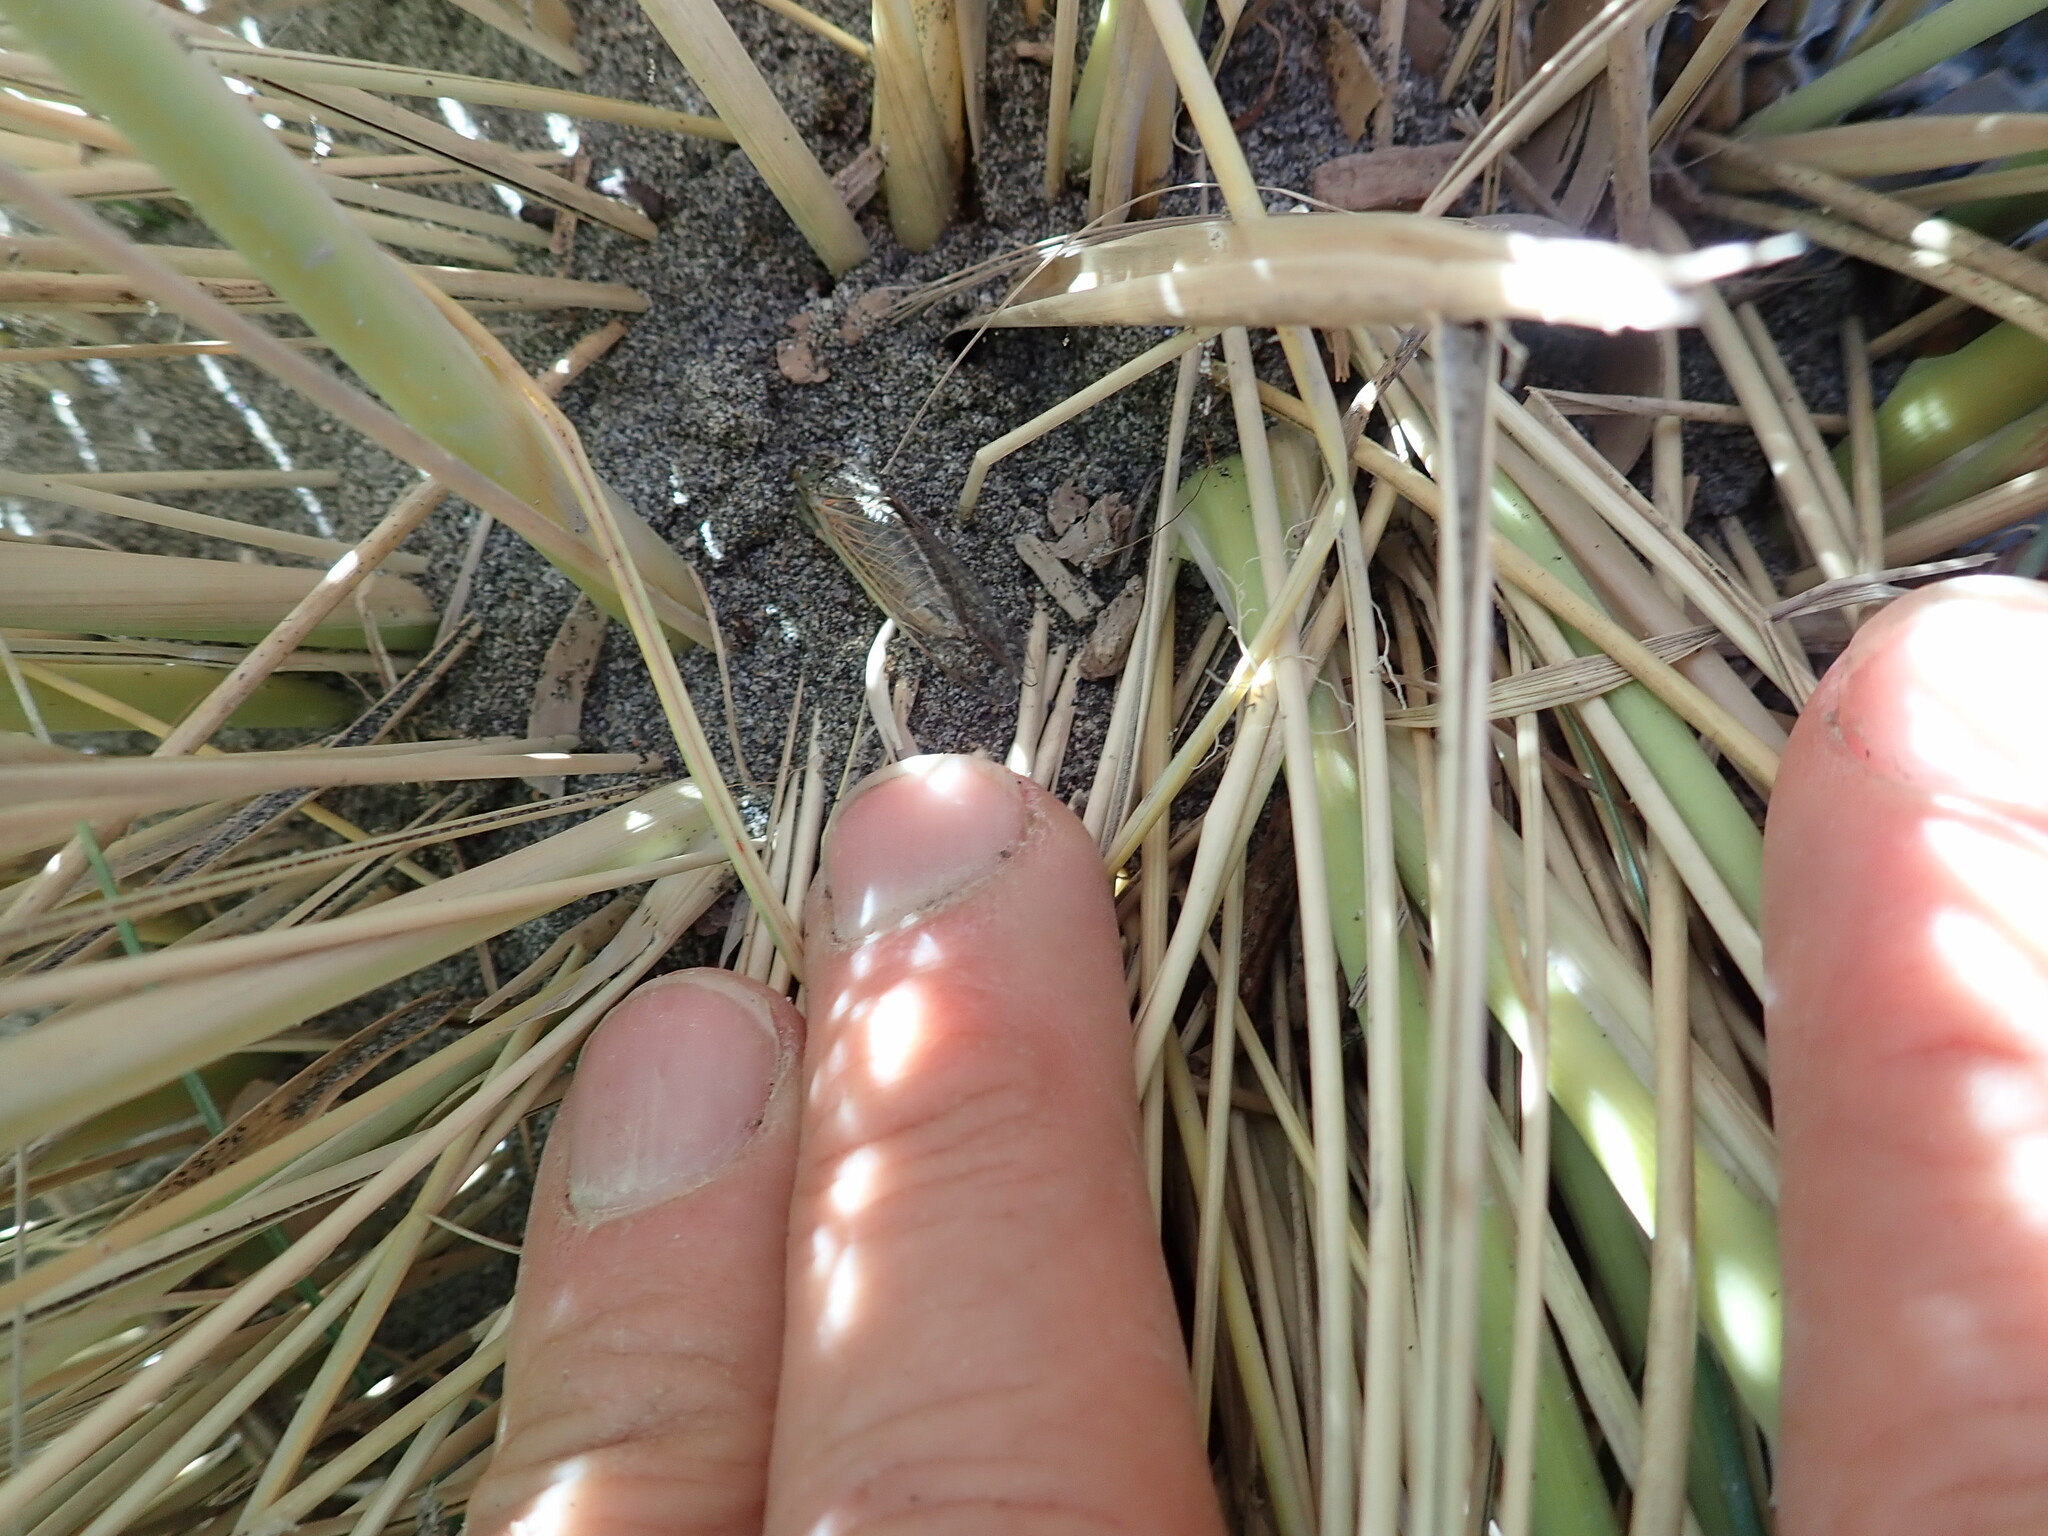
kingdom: Animalia
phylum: Arthropoda
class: Insecta
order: Hemiptera
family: Cicadidae
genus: Rhodopsalta
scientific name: Rhodopsalta leptomera
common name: Sand dune redtail cicada
